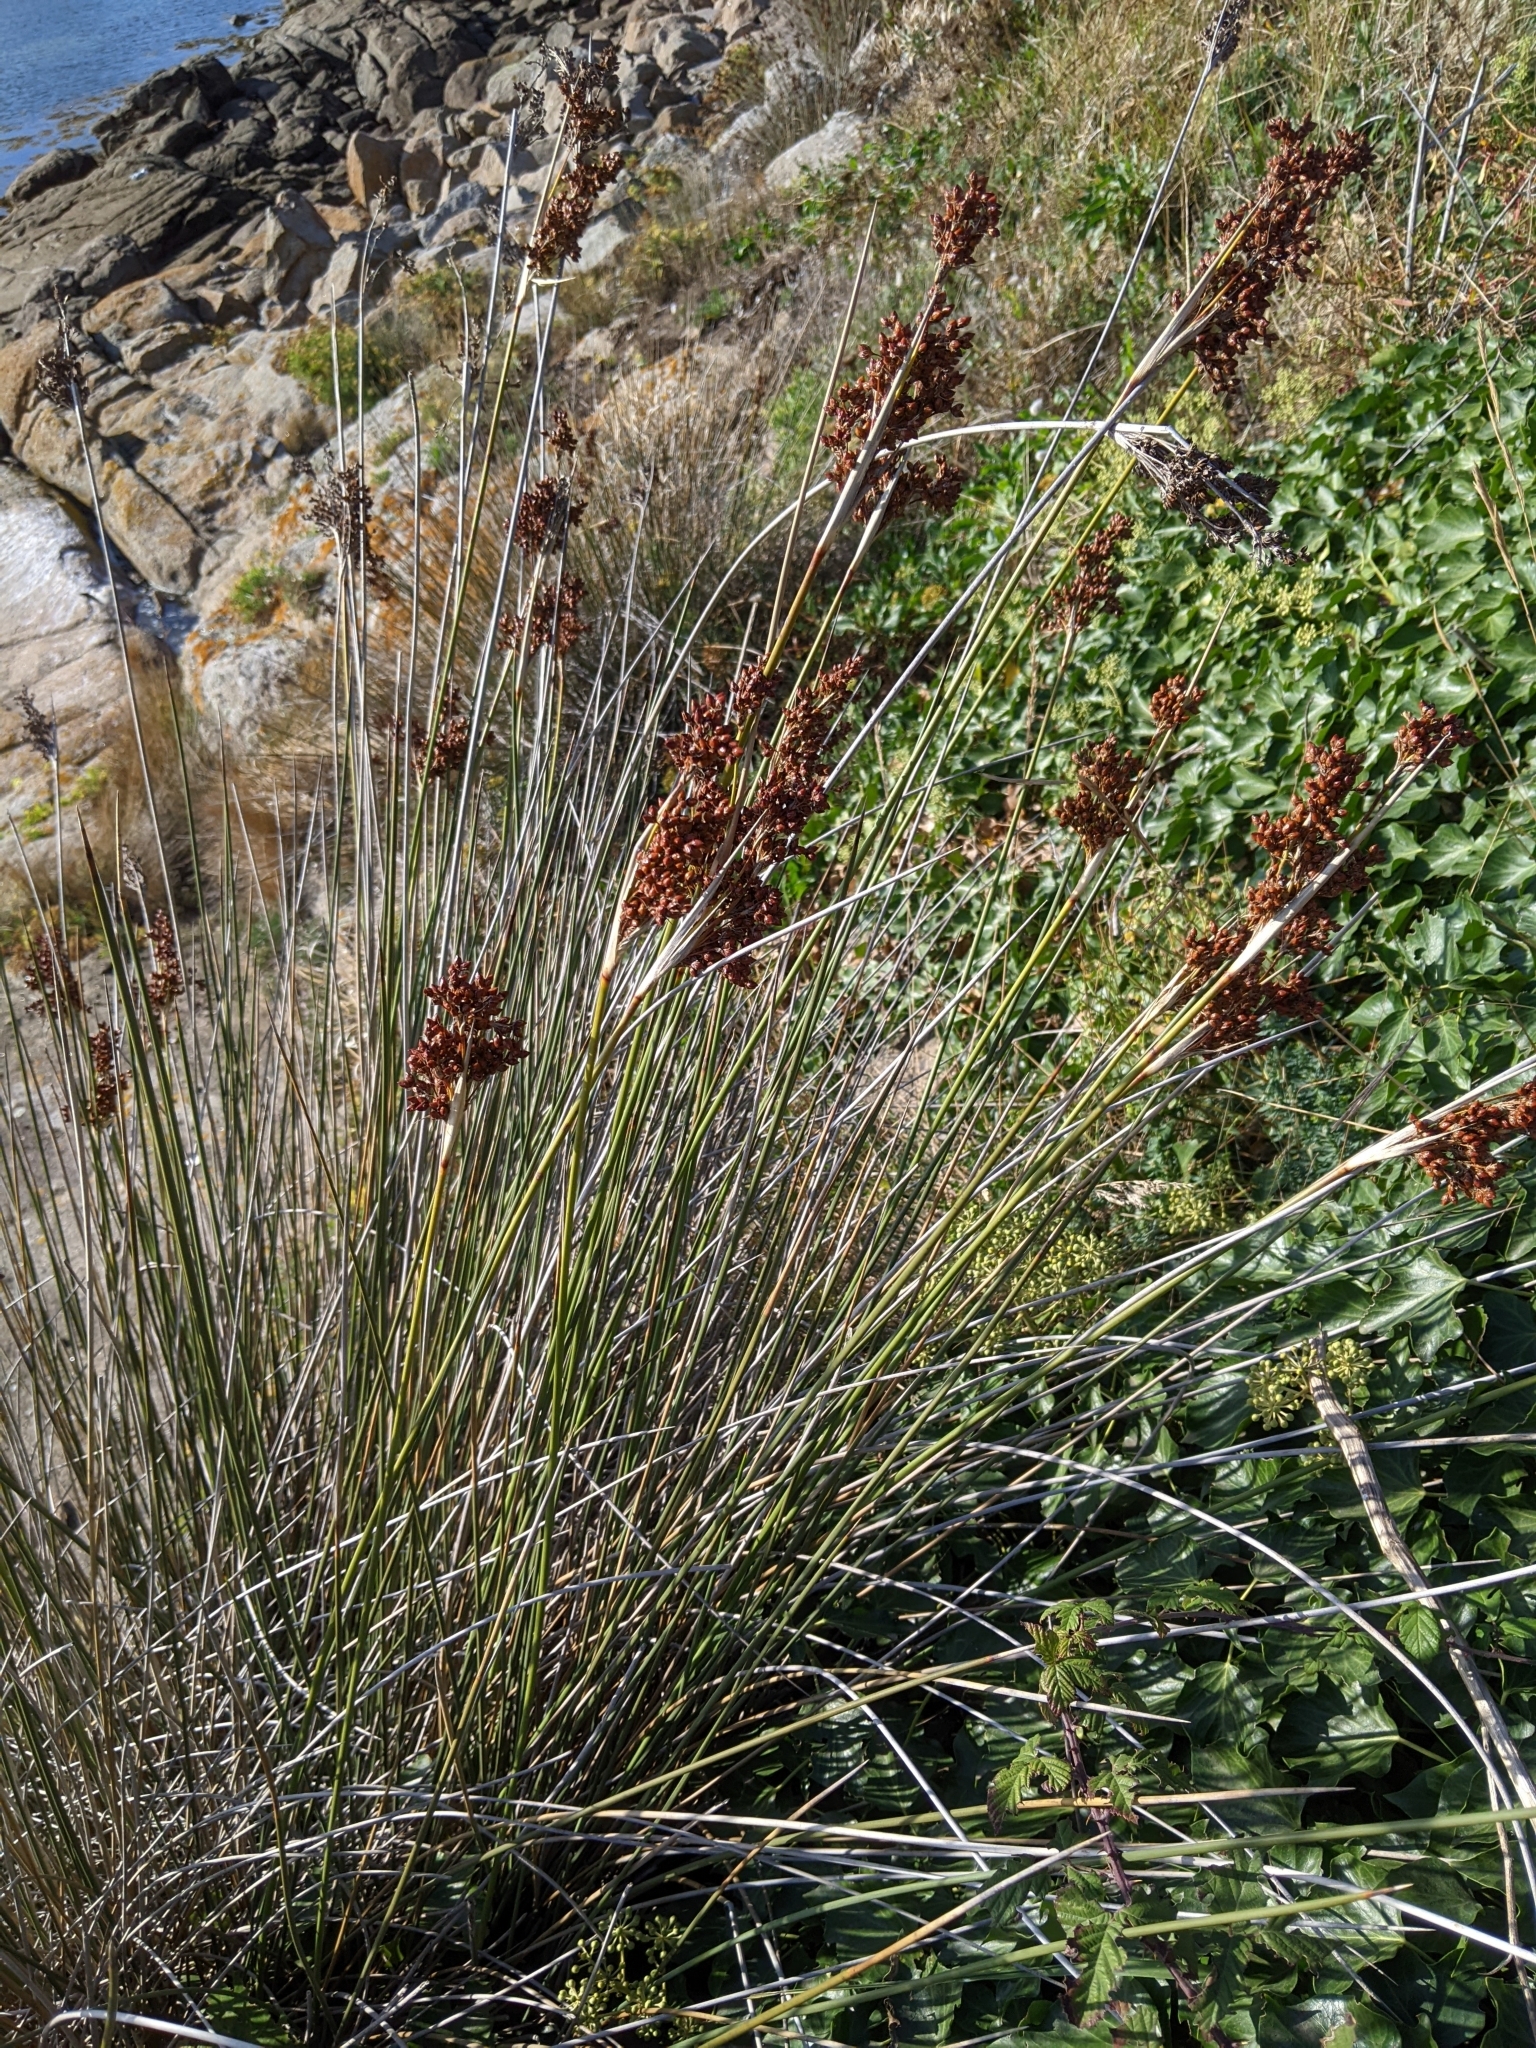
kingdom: Plantae
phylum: Tracheophyta
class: Liliopsida
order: Poales
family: Juncaceae
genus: Juncus
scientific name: Juncus acutus
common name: Sharp rush
